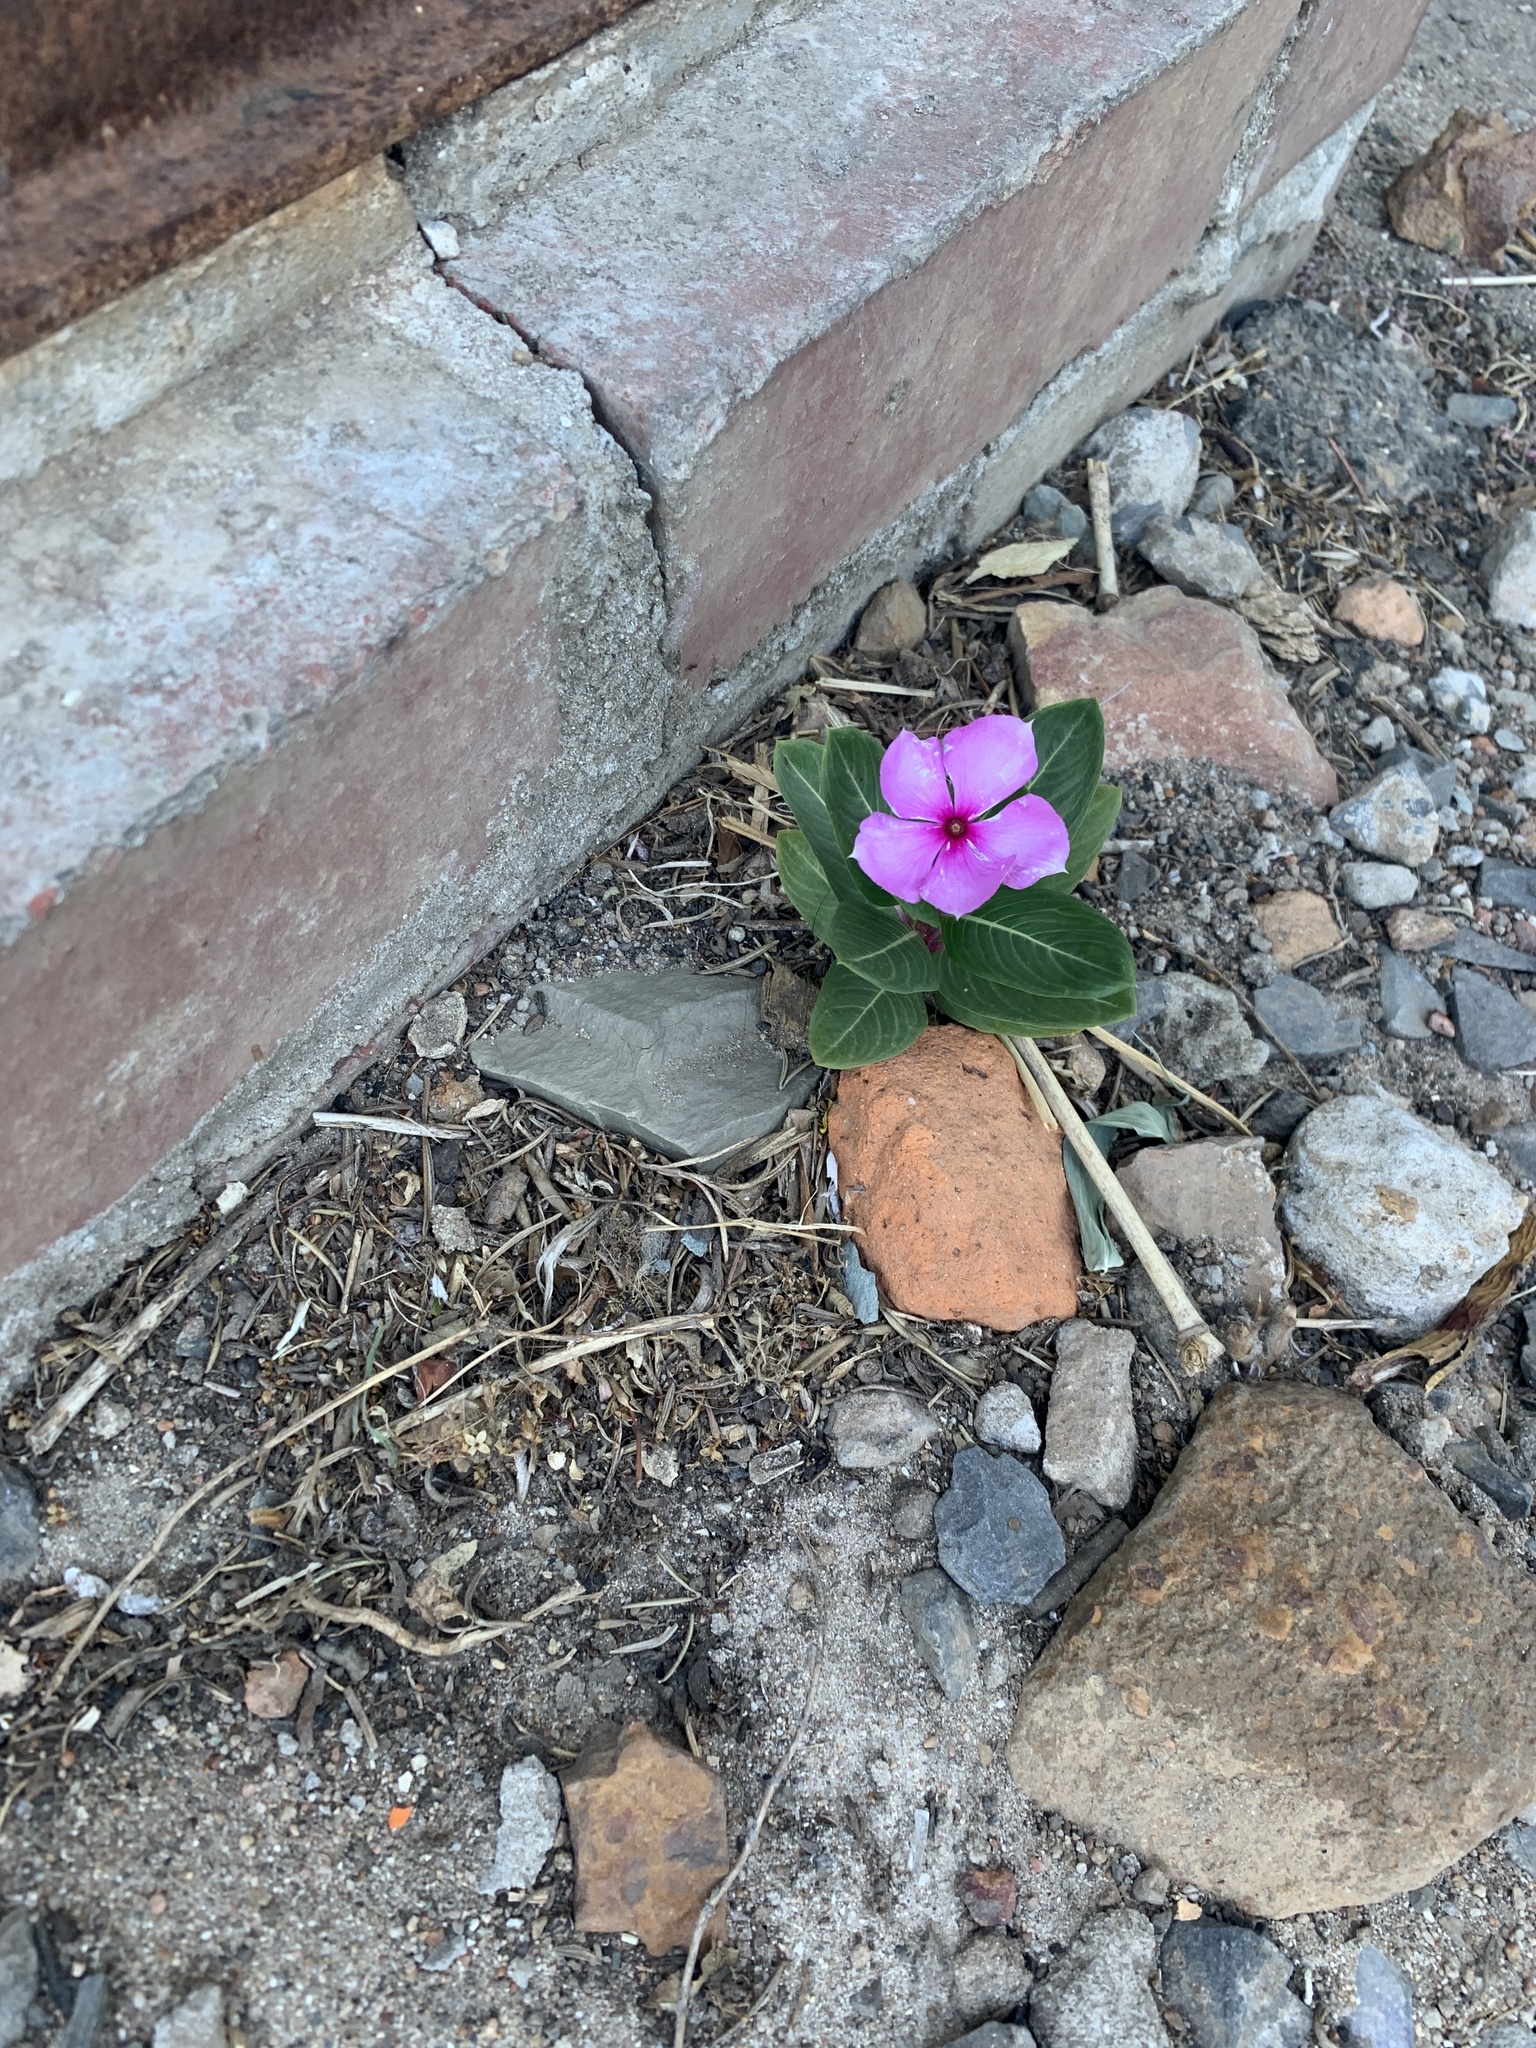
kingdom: Plantae
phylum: Tracheophyta
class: Magnoliopsida
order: Gentianales
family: Apocynaceae
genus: Catharanthus
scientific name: Catharanthus roseus
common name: Madagascar periwinkle
